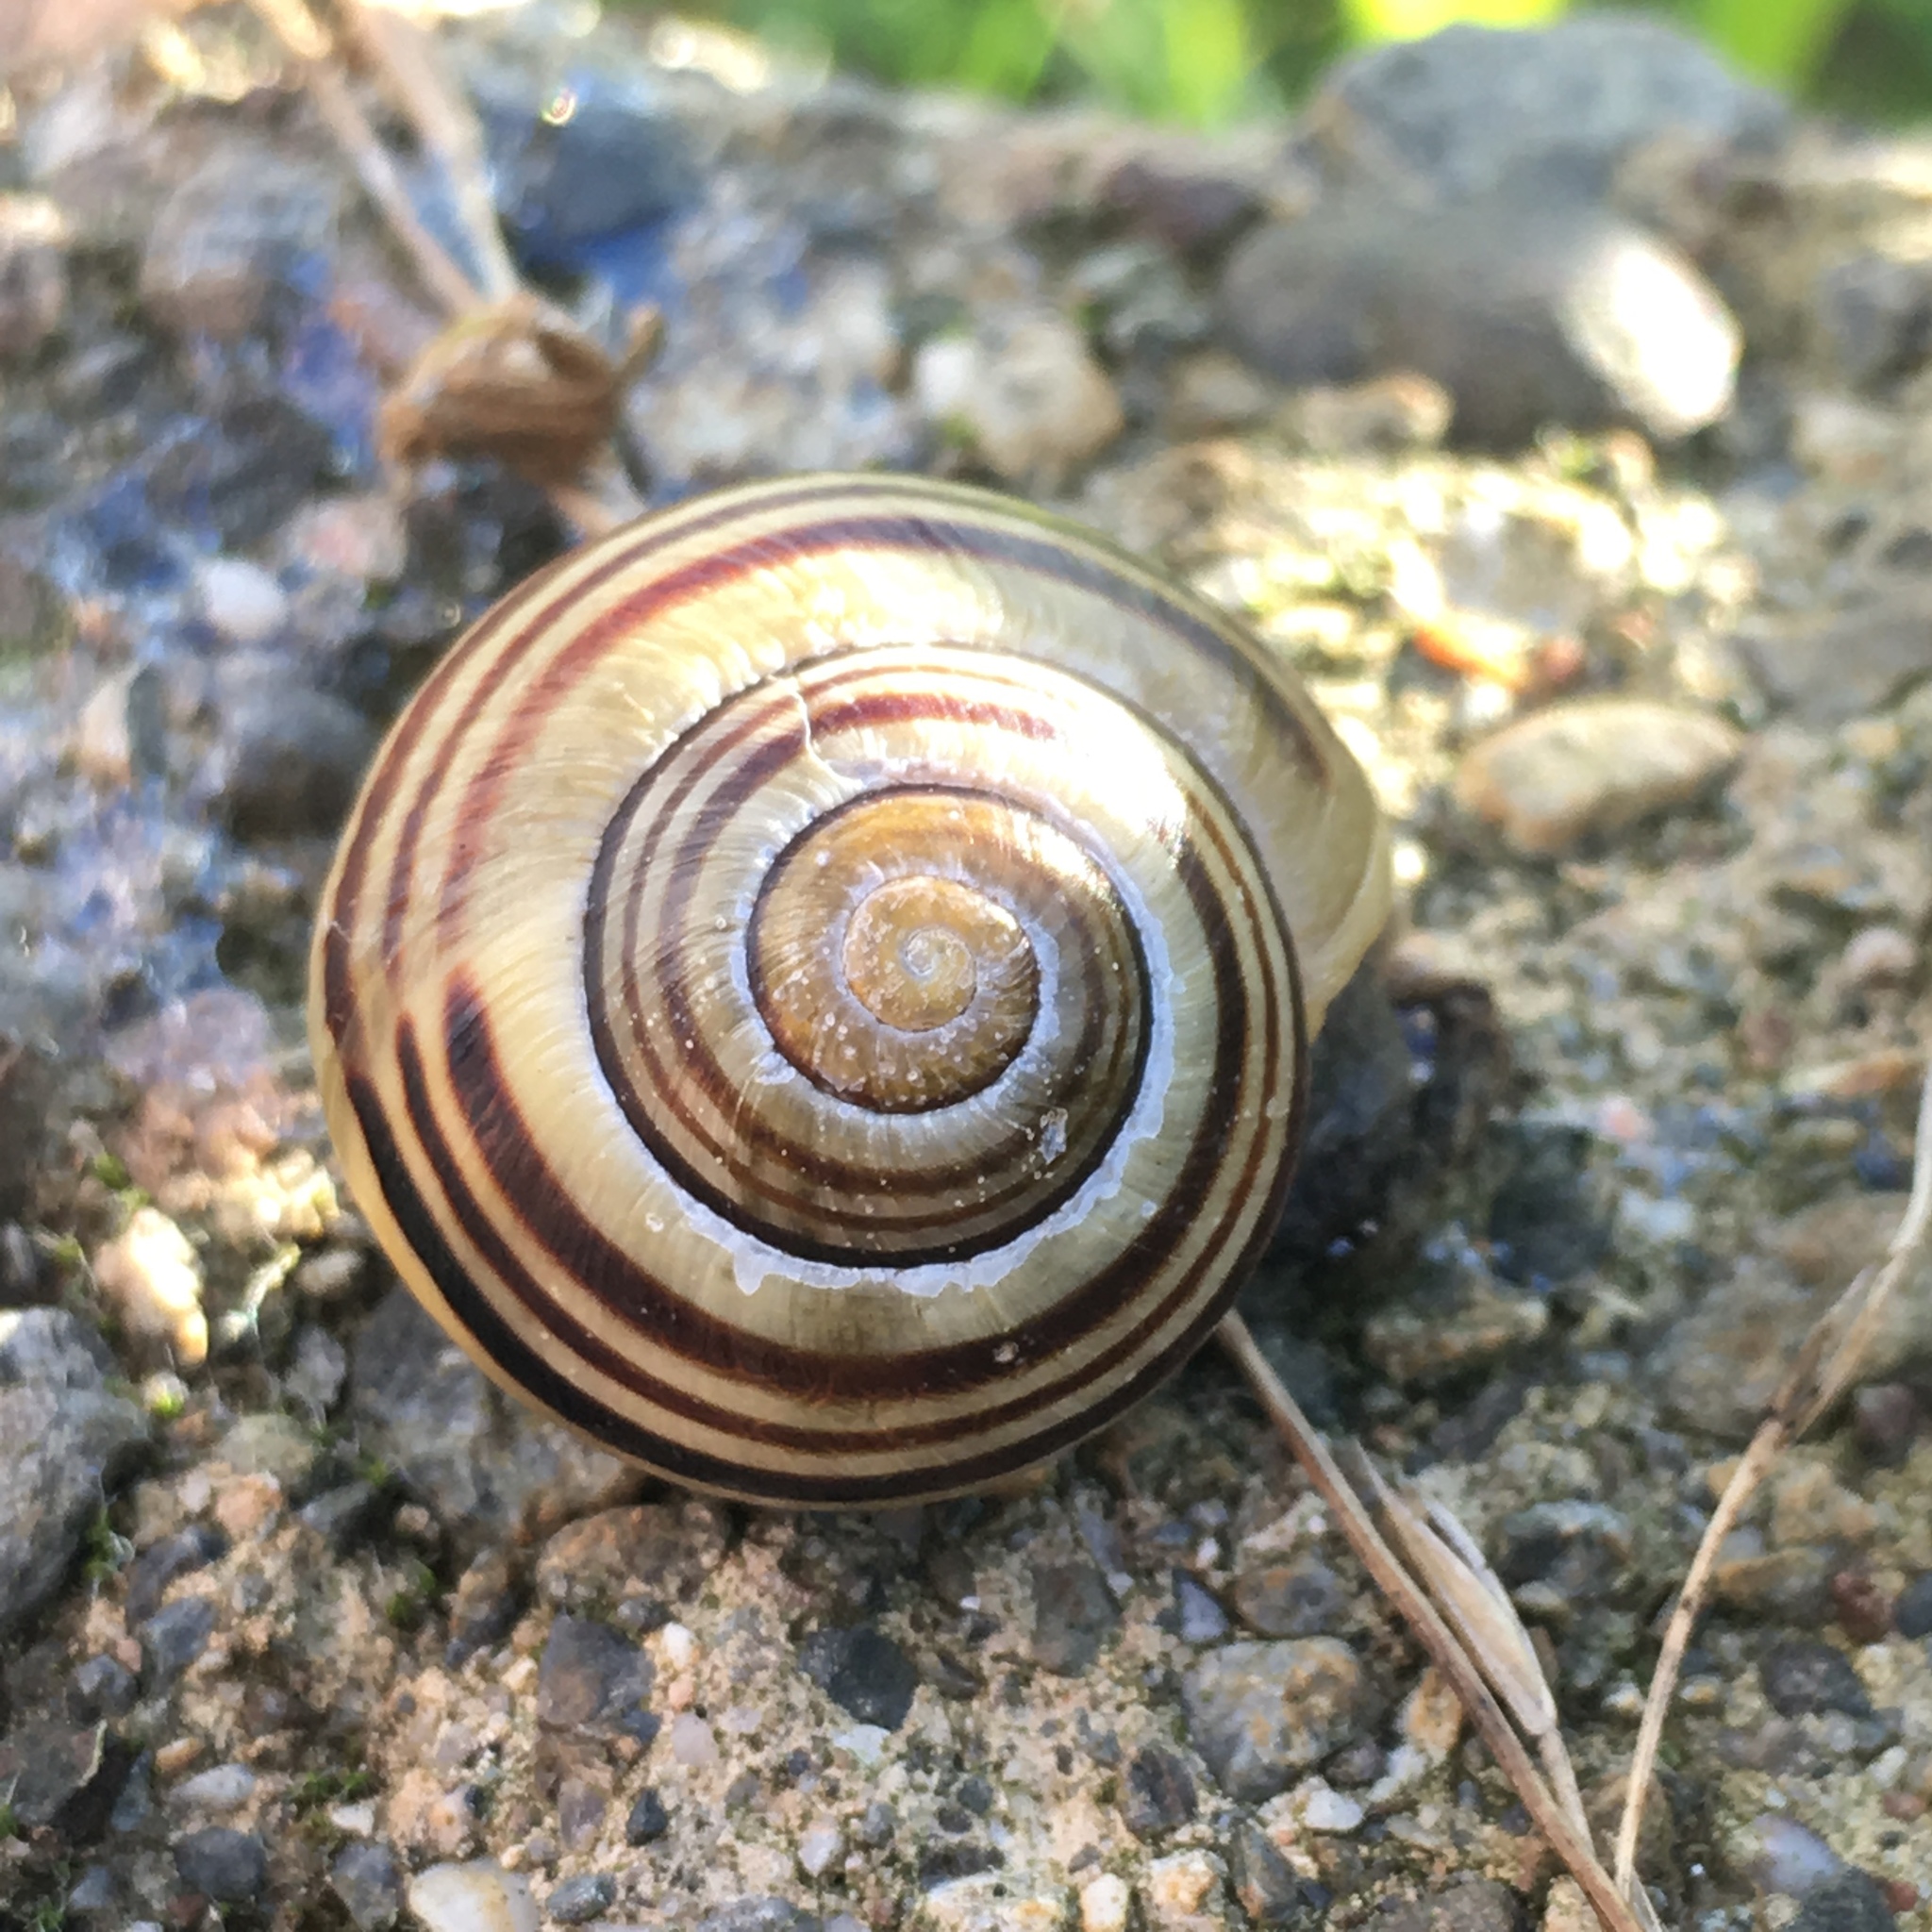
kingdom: Animalia
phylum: Mollusca
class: Gastropoda
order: Stylommatophora
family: Helicidae
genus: Cepaea
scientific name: Cepaea nemoralis
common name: Grovesnail
